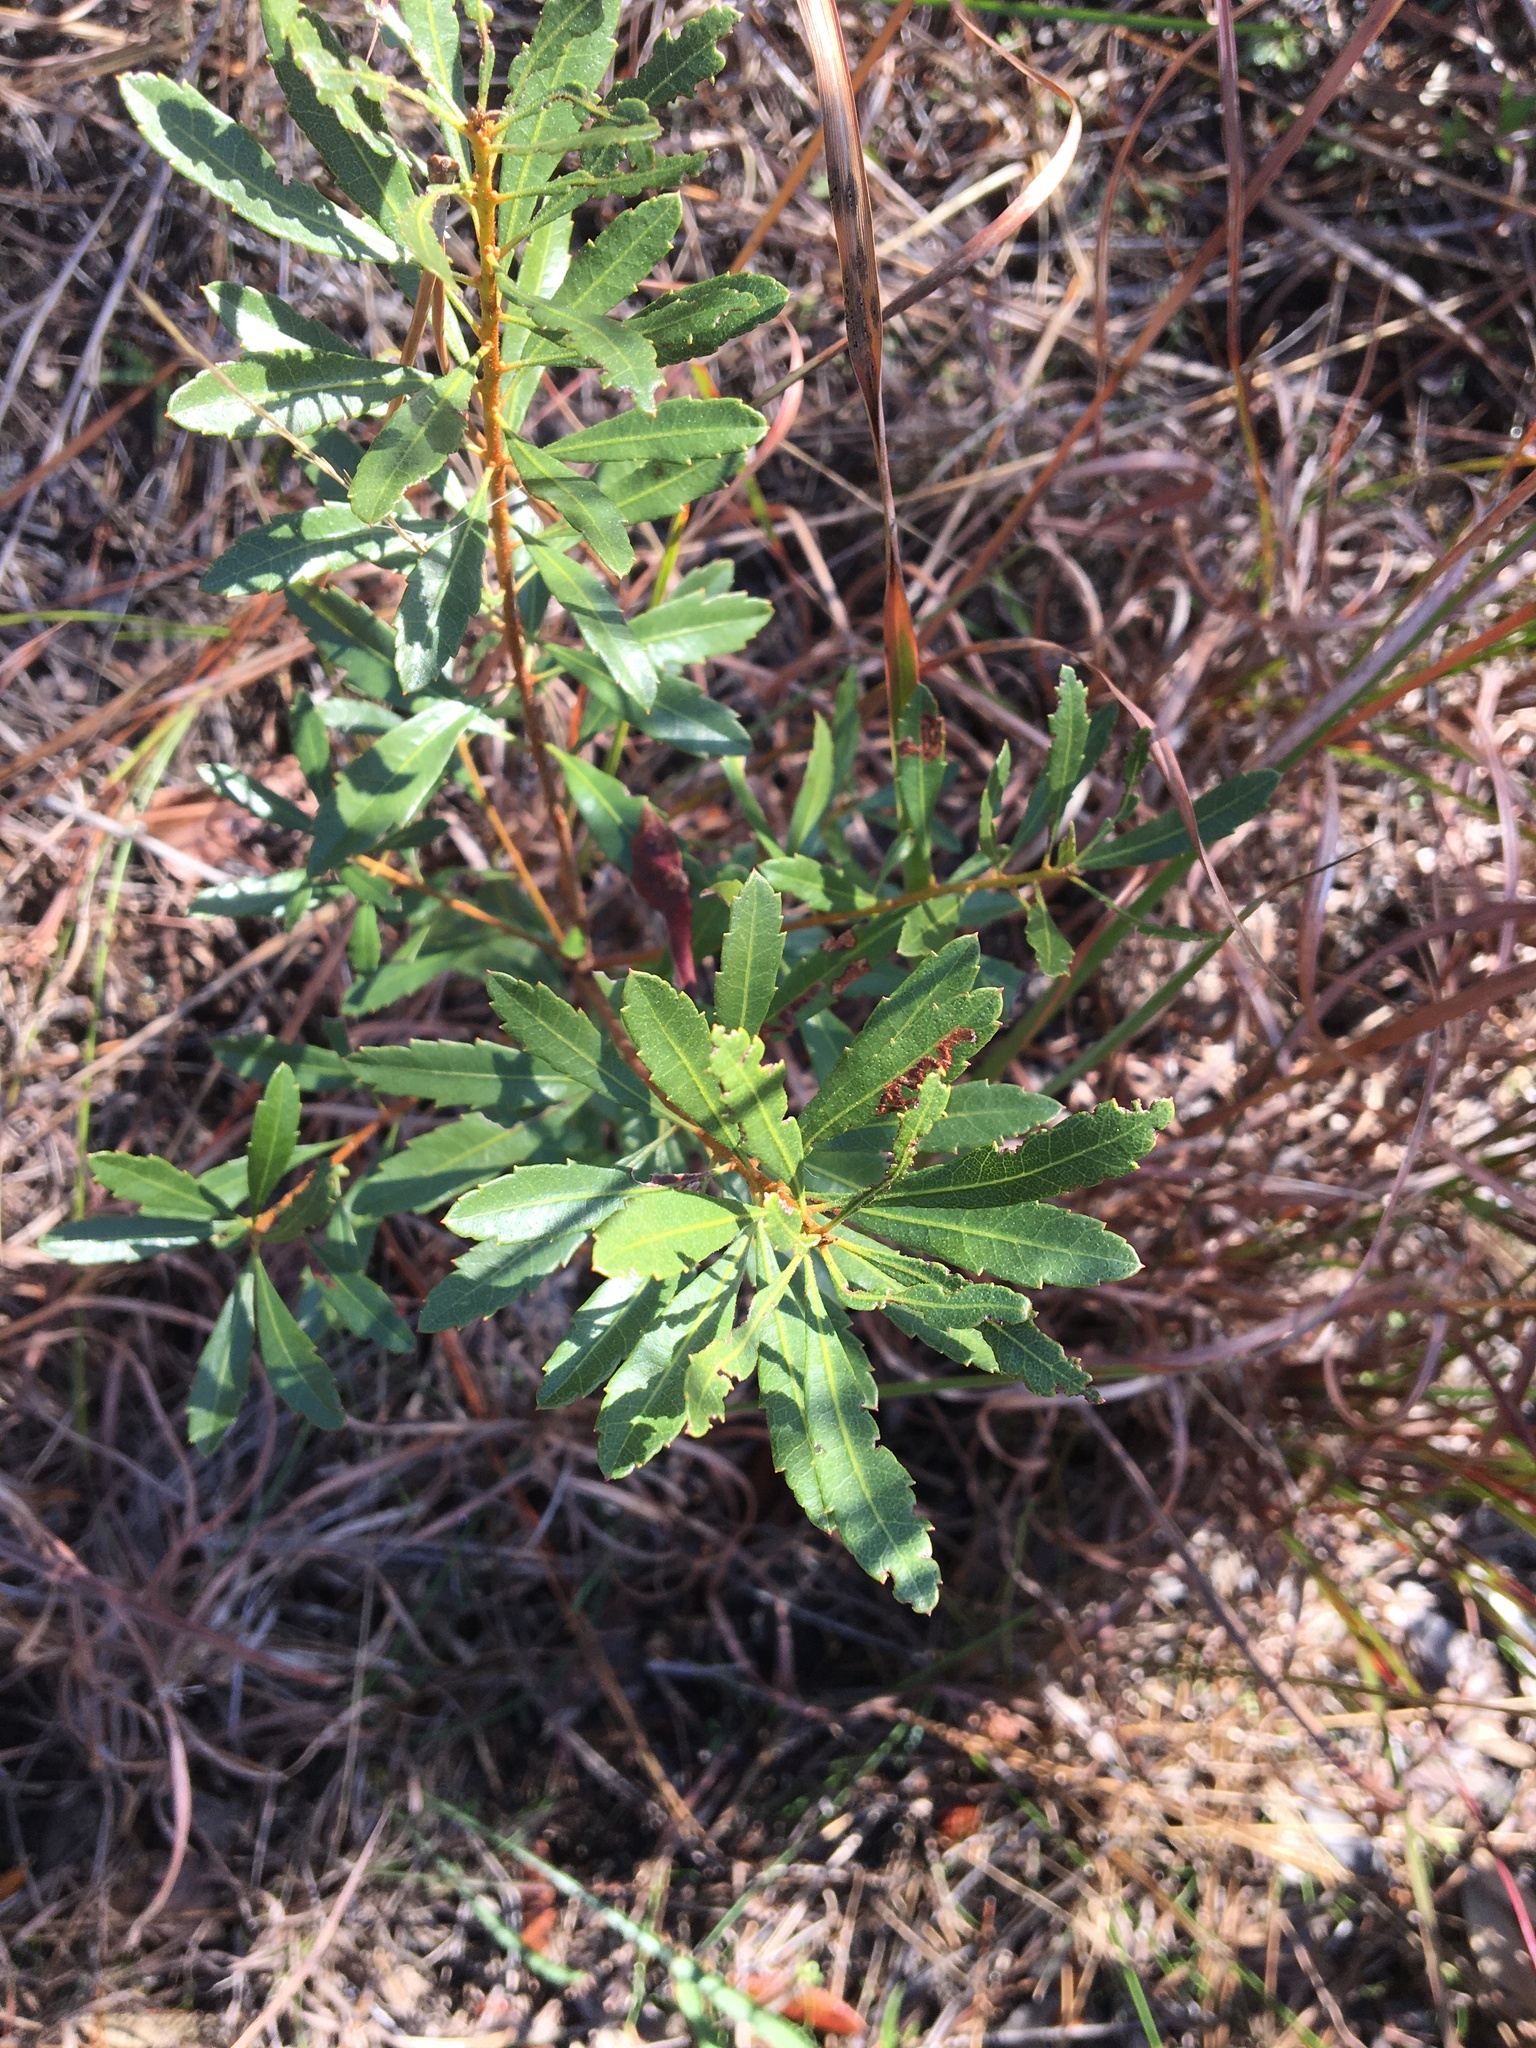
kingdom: Plantae
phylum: Tracheophyta
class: Magnoliopsida
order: Fagales
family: Myricaceae
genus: Morella
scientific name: Morella cerifera
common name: Wax myrtle
